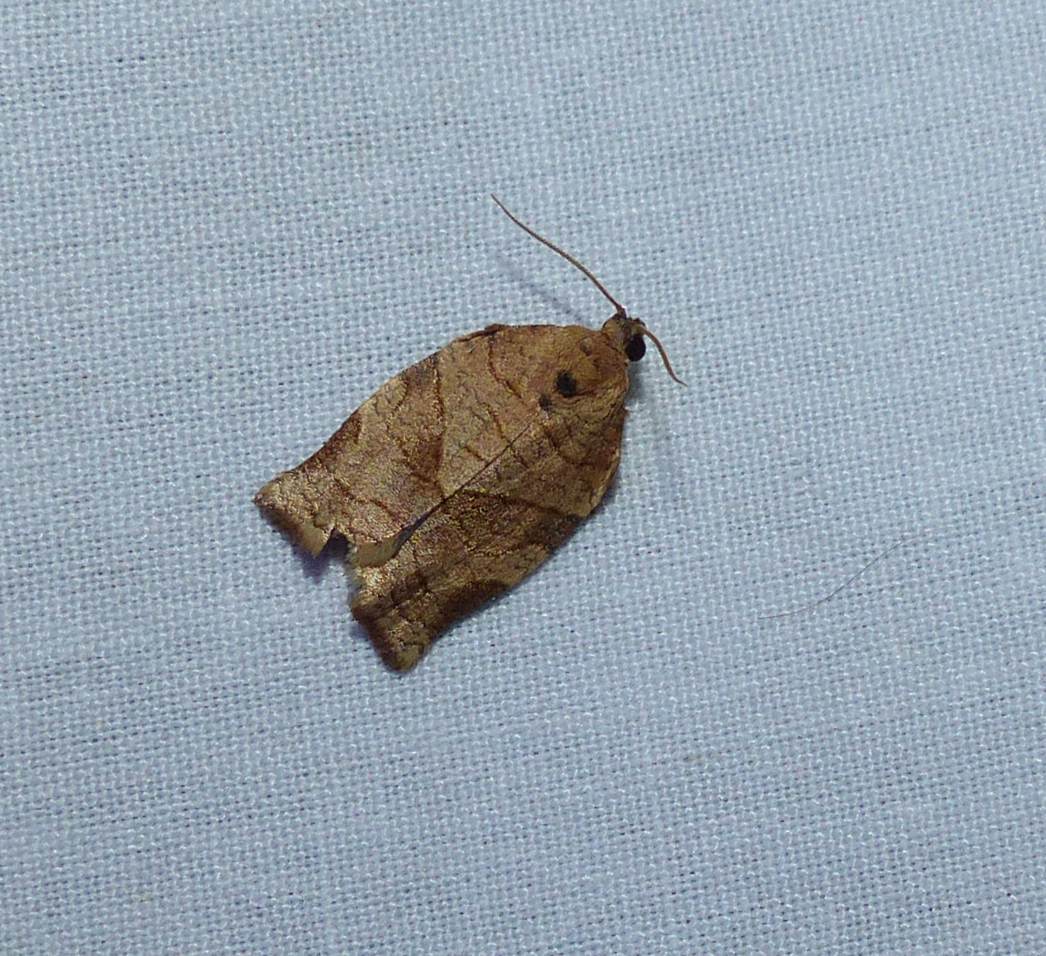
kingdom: Animalia
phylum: Arthropoda
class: Insecta
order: Lepidoptera
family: Tortricidae
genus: Choristoneura
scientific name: Choristoneura rosaceana
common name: Oblique-banded leafroller moth
